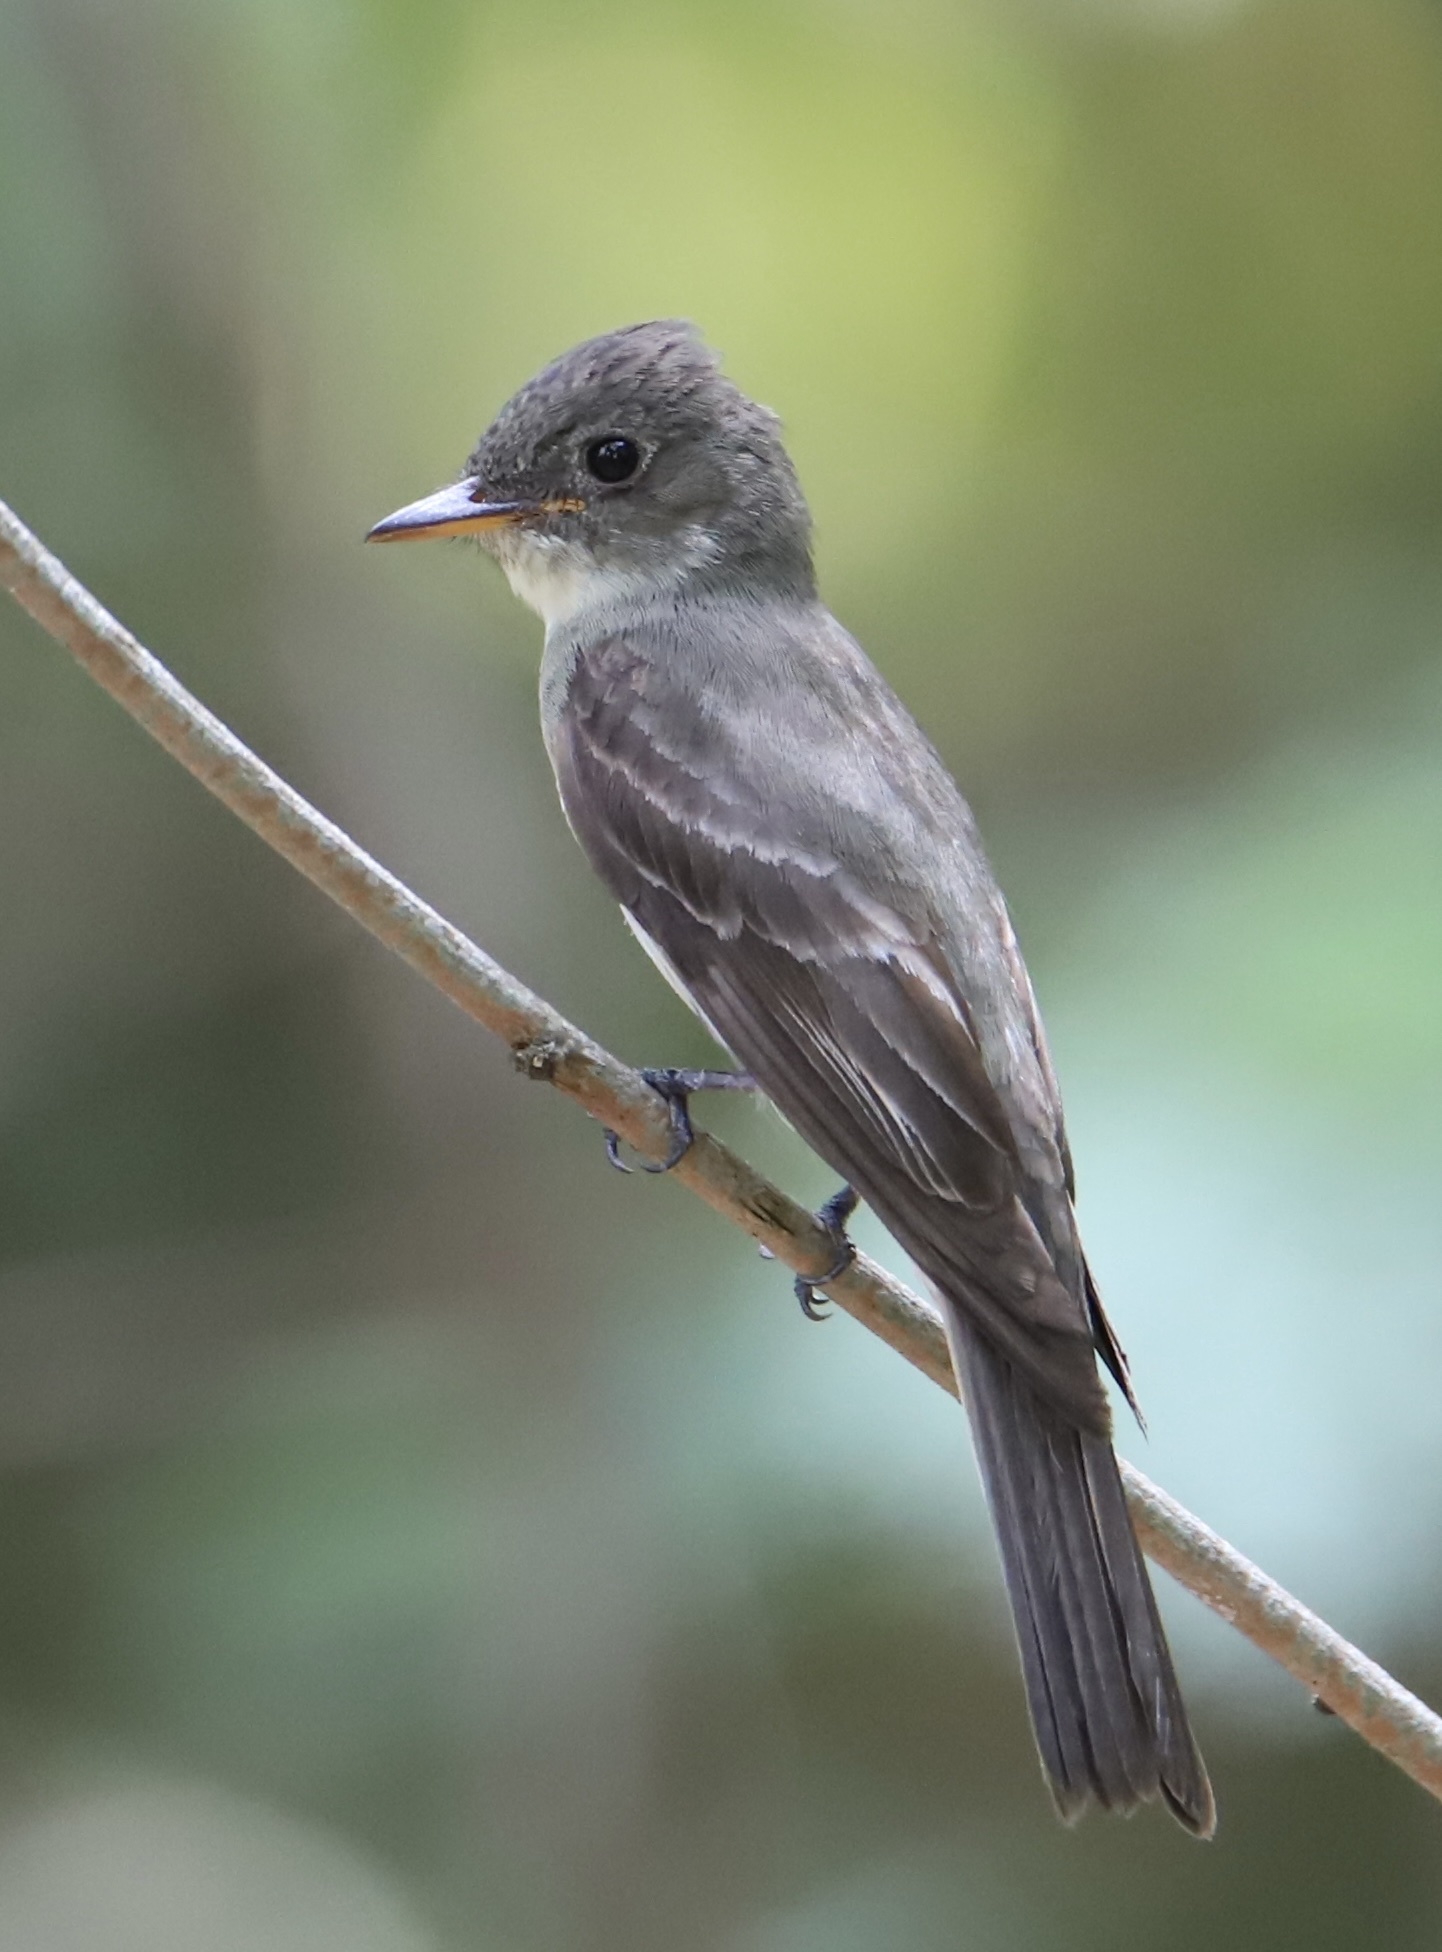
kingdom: Animalia
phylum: Chordata
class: Aves
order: Passeriformes
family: Tyrannidae
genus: Contopus
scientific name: Contopus virens
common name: Eastern wood-pewee
